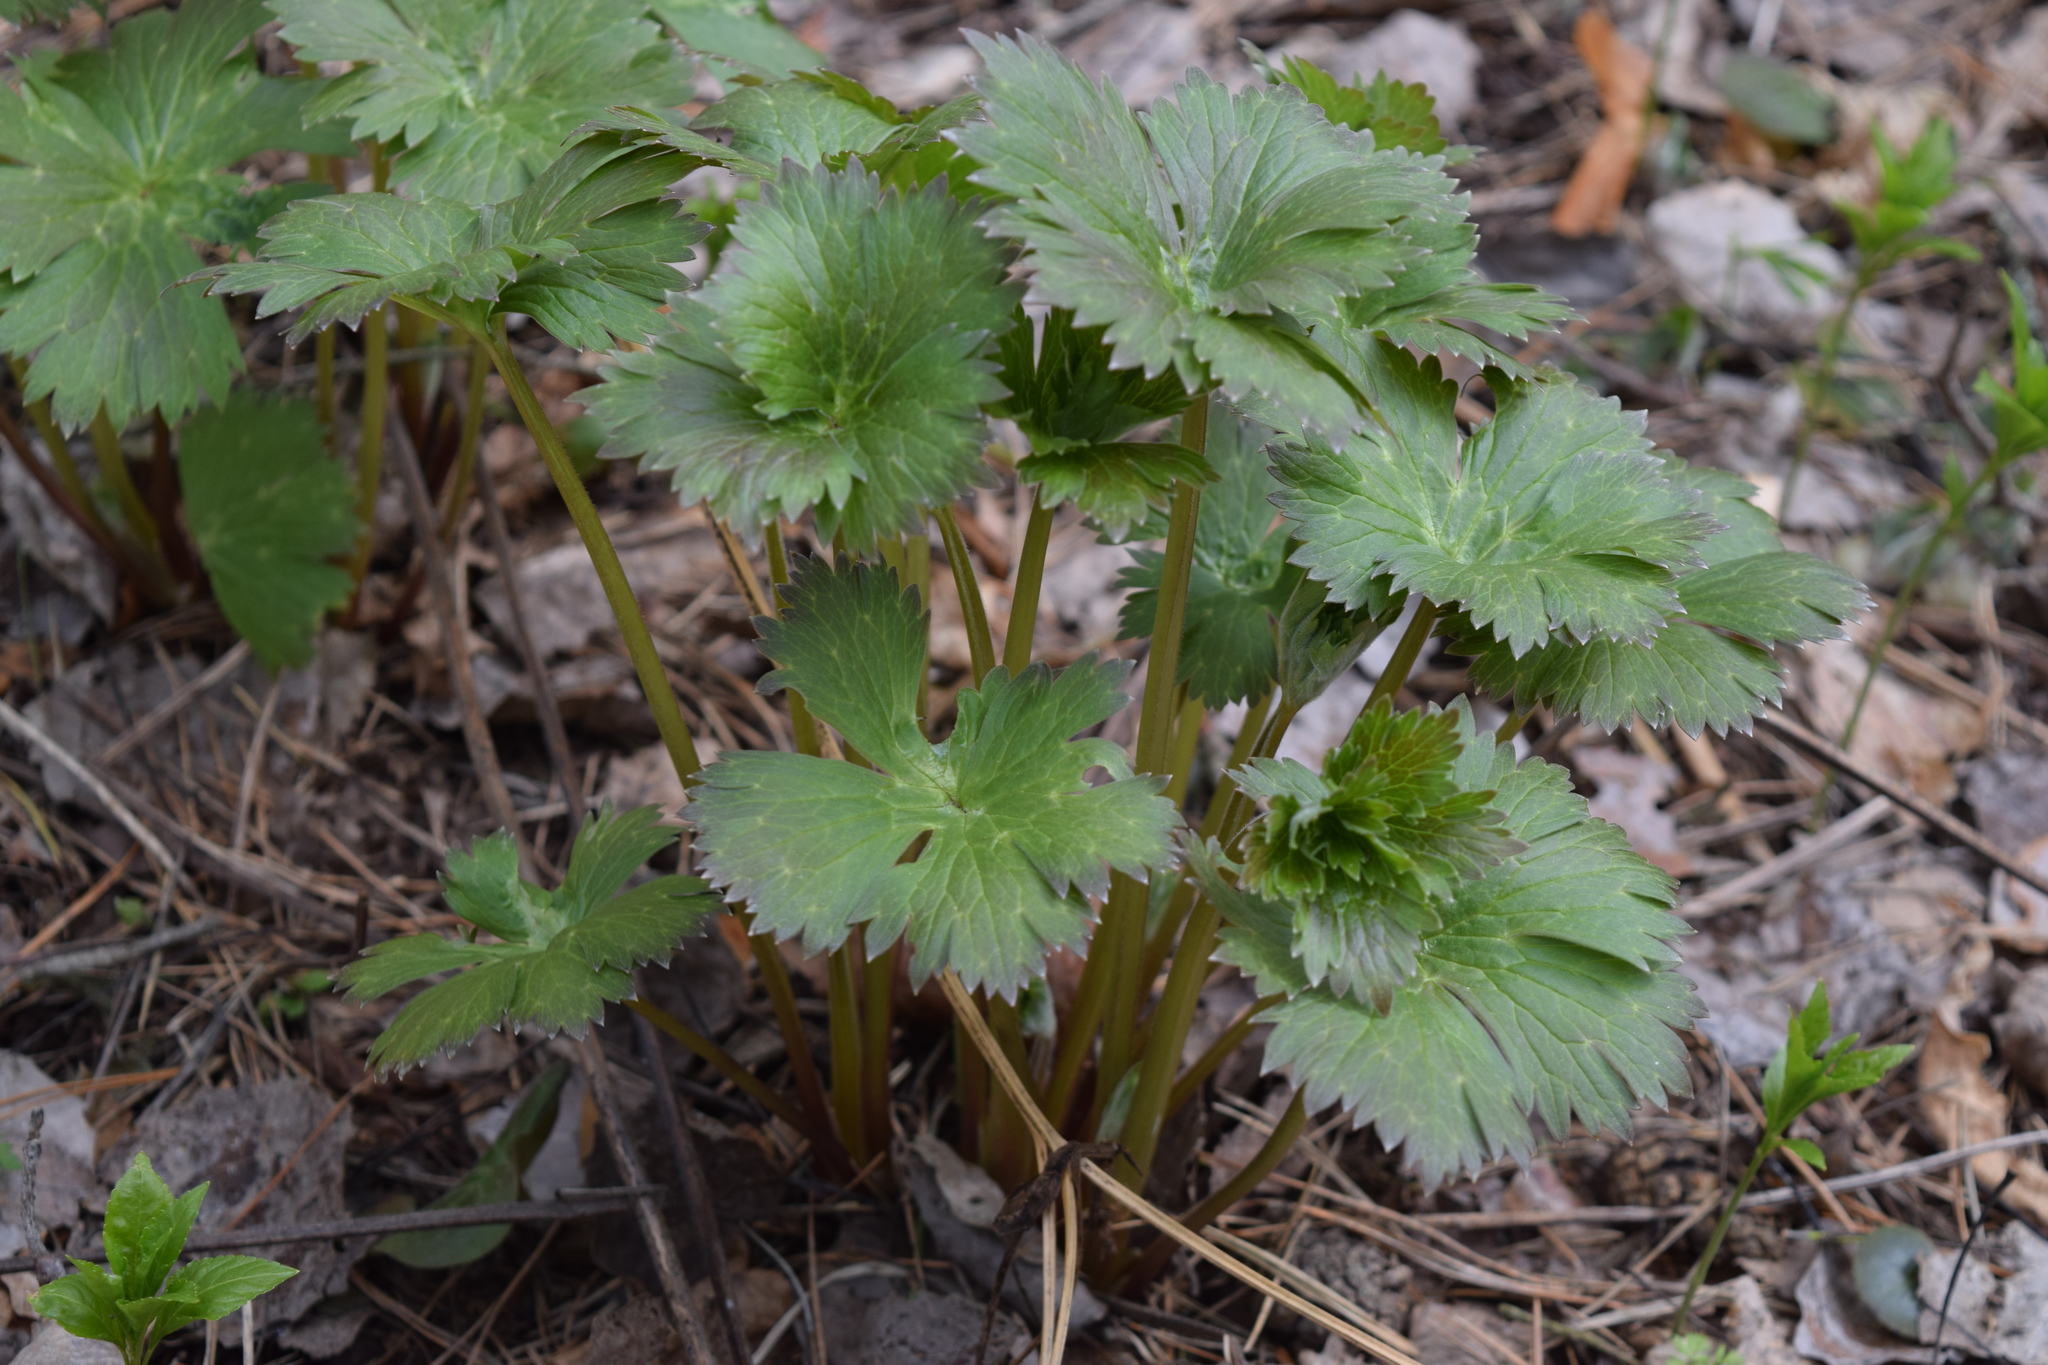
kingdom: Plantae
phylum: Tracheophyta
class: Magnoliopsida
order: Ranunculales
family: Ranunculaceae
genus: Trollius
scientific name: Trollius europaeus
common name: European globeflower
